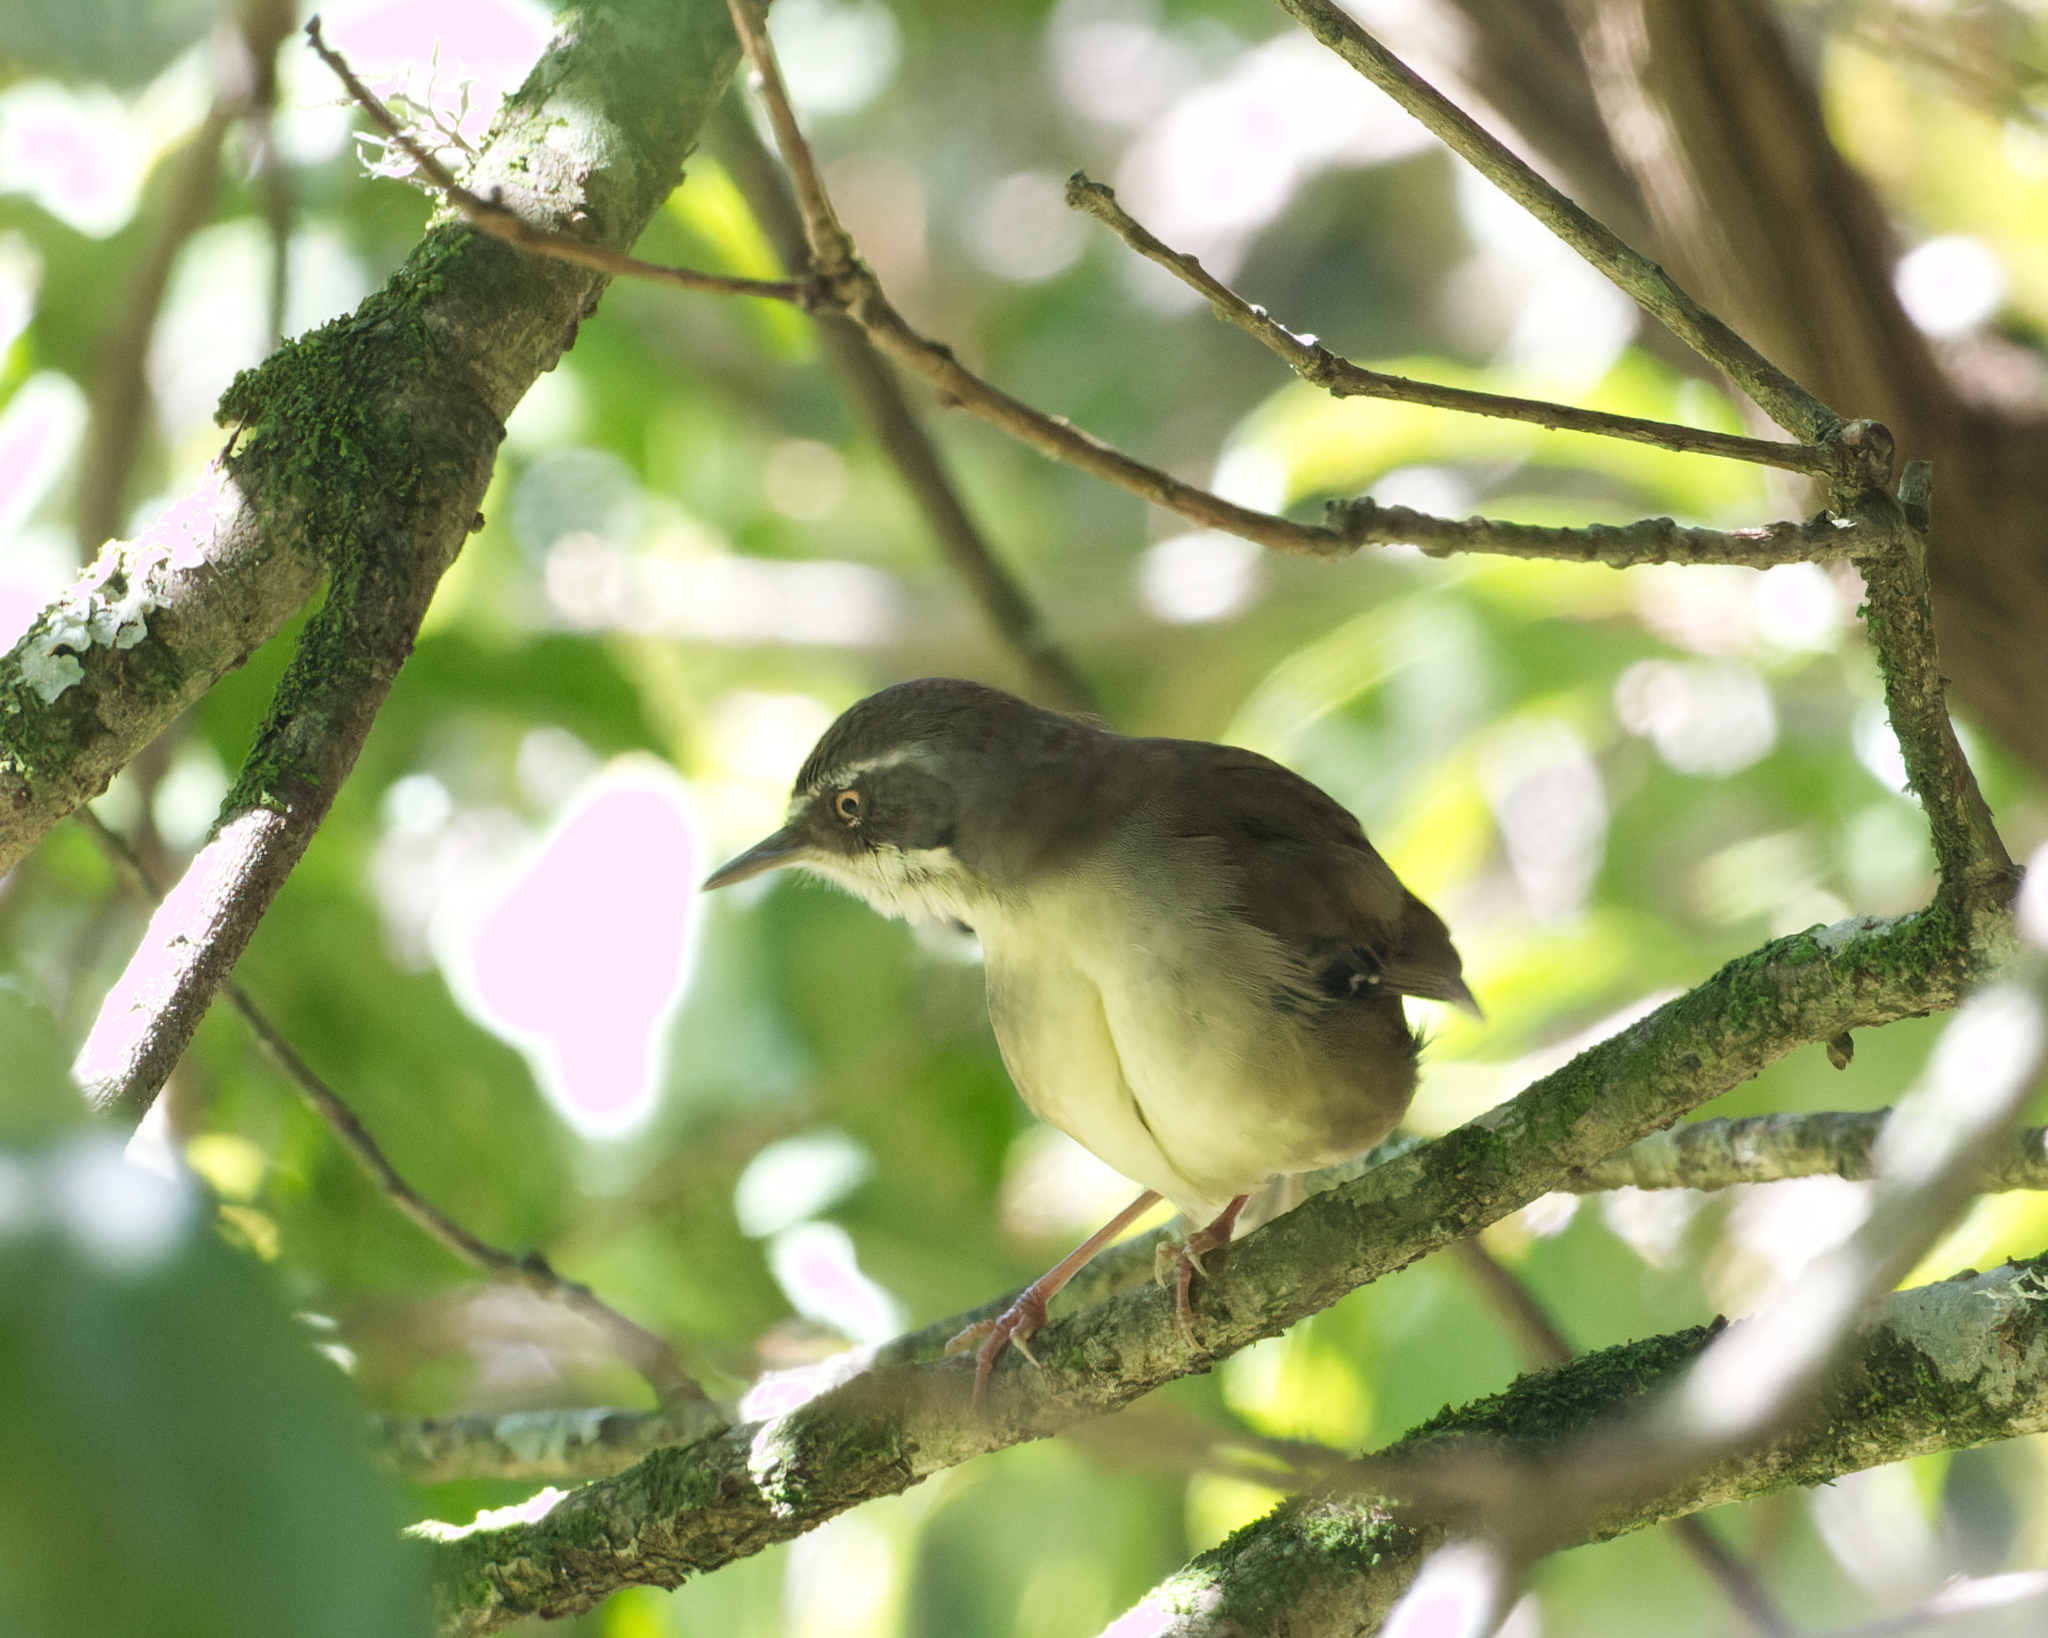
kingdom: Animalia
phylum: Chordata
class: Aves
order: Passeriformes
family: Acanthizidae
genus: Sericornis
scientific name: Sericornis frontalis
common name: White-browed scrubwren
